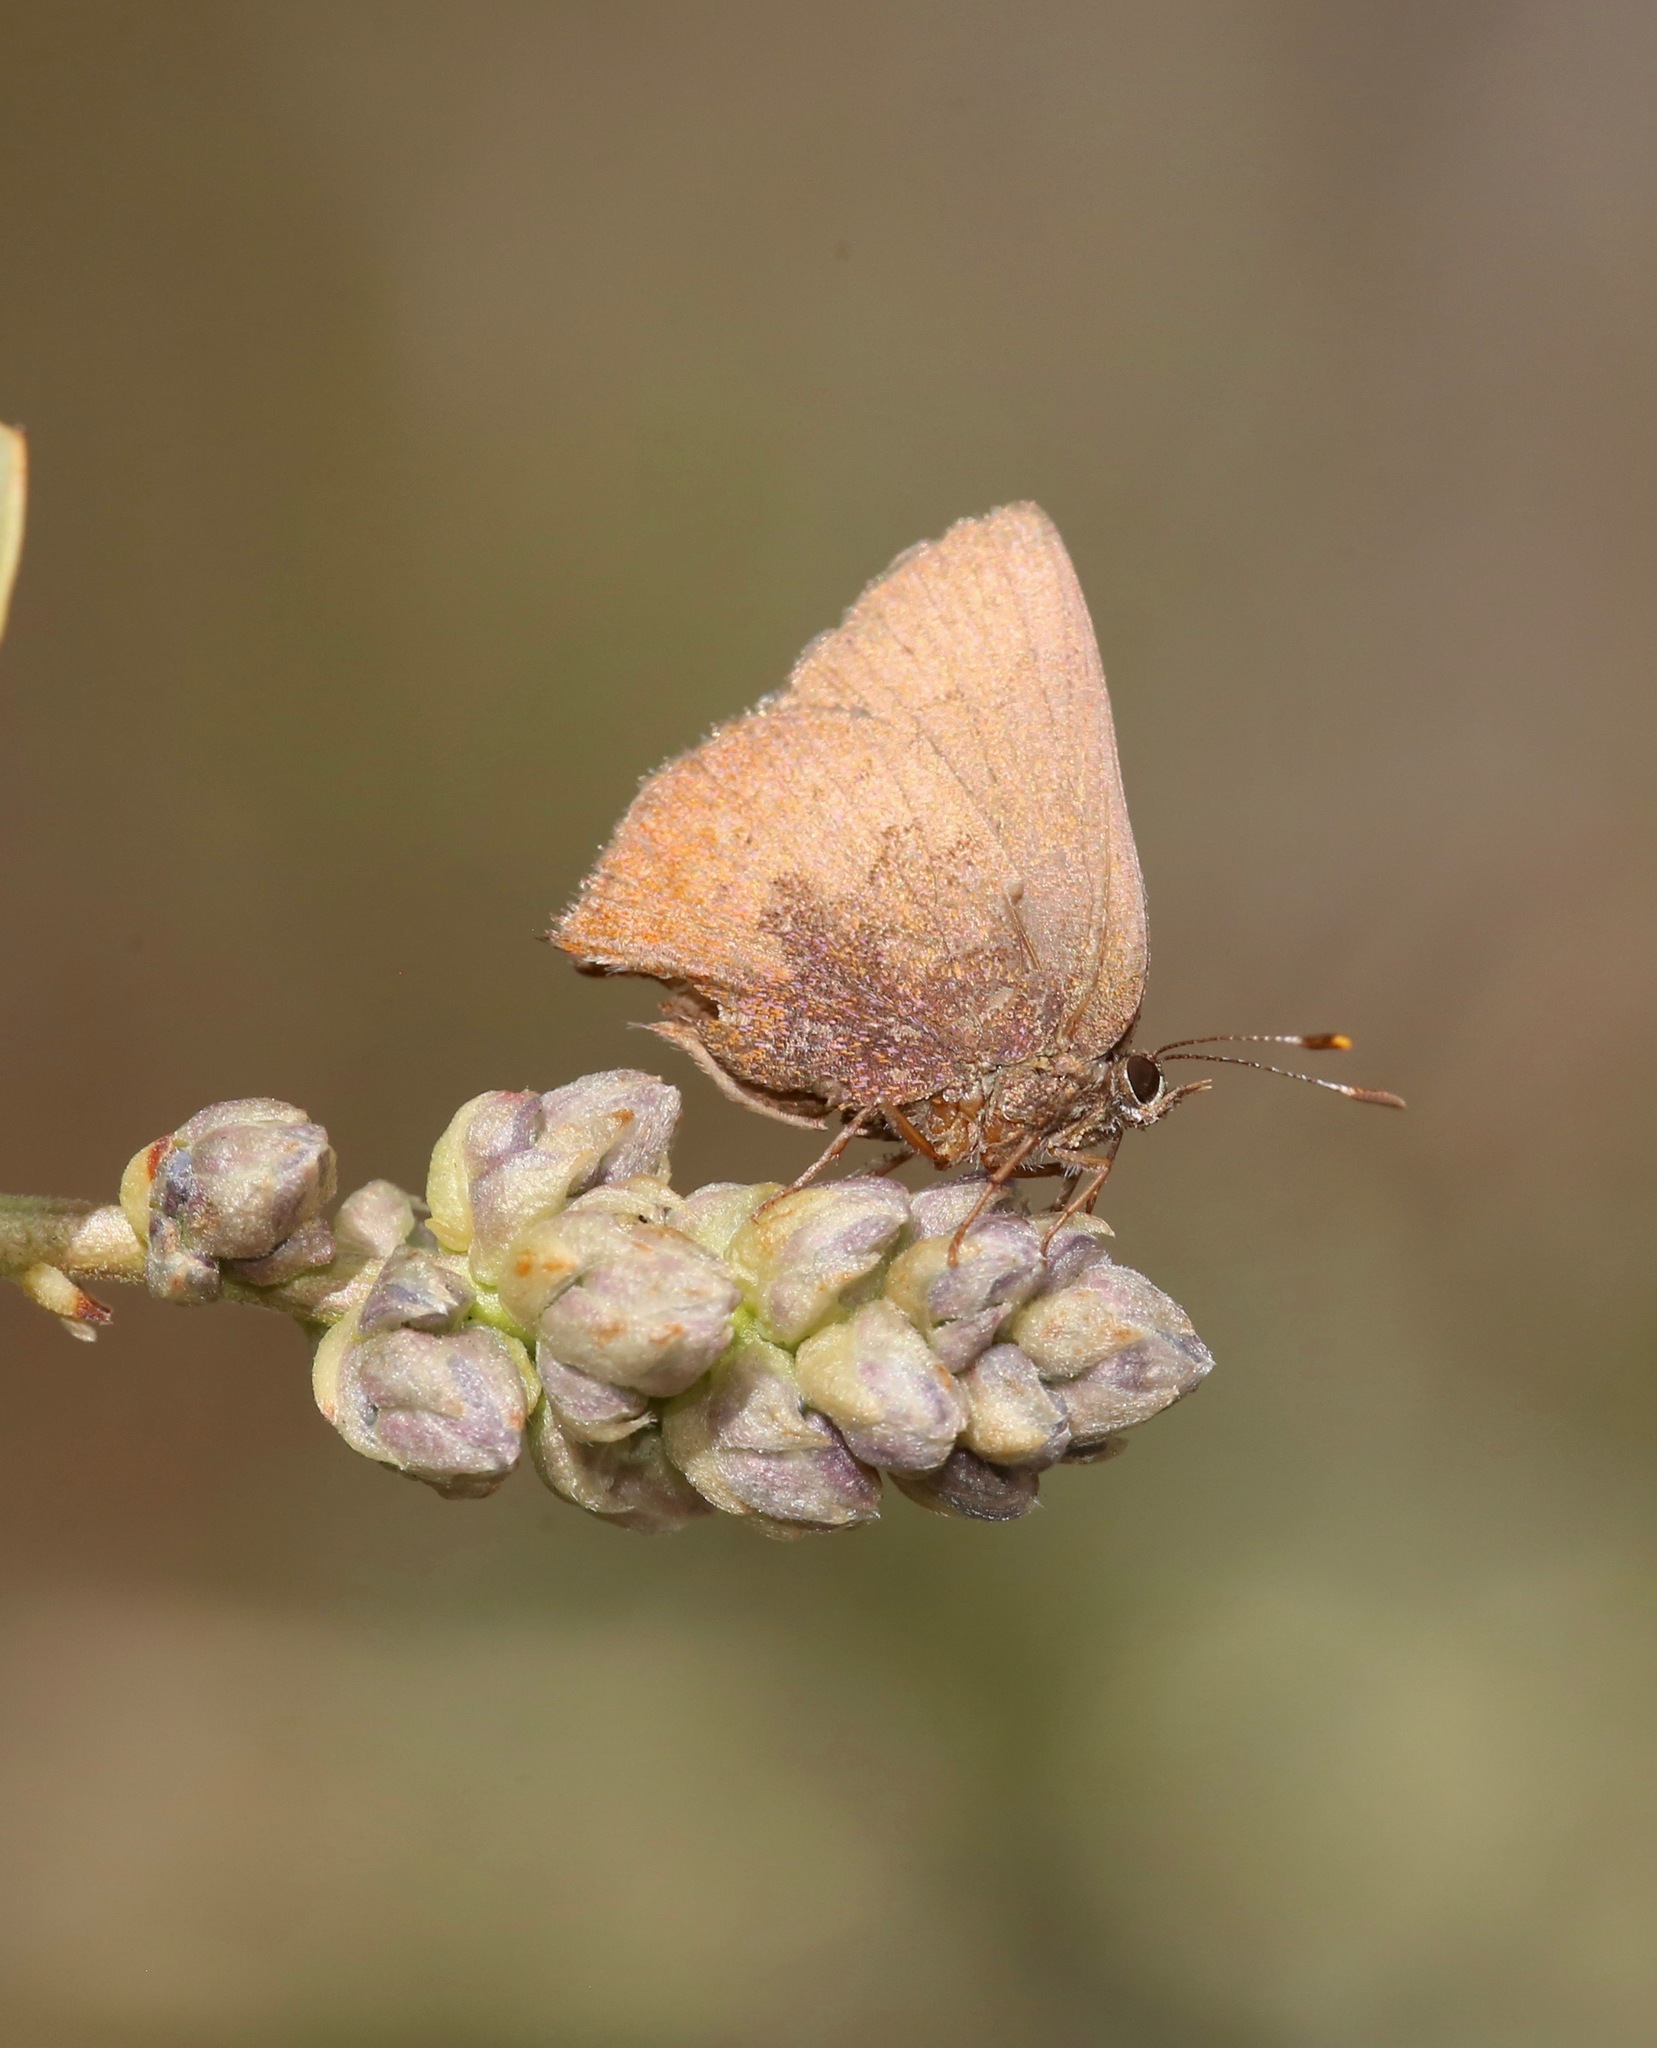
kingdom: Animalia
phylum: Arthropoda
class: Insecta
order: Lepidoptera
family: Lycaenidae
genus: Incisalia
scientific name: Incisalia irioides
